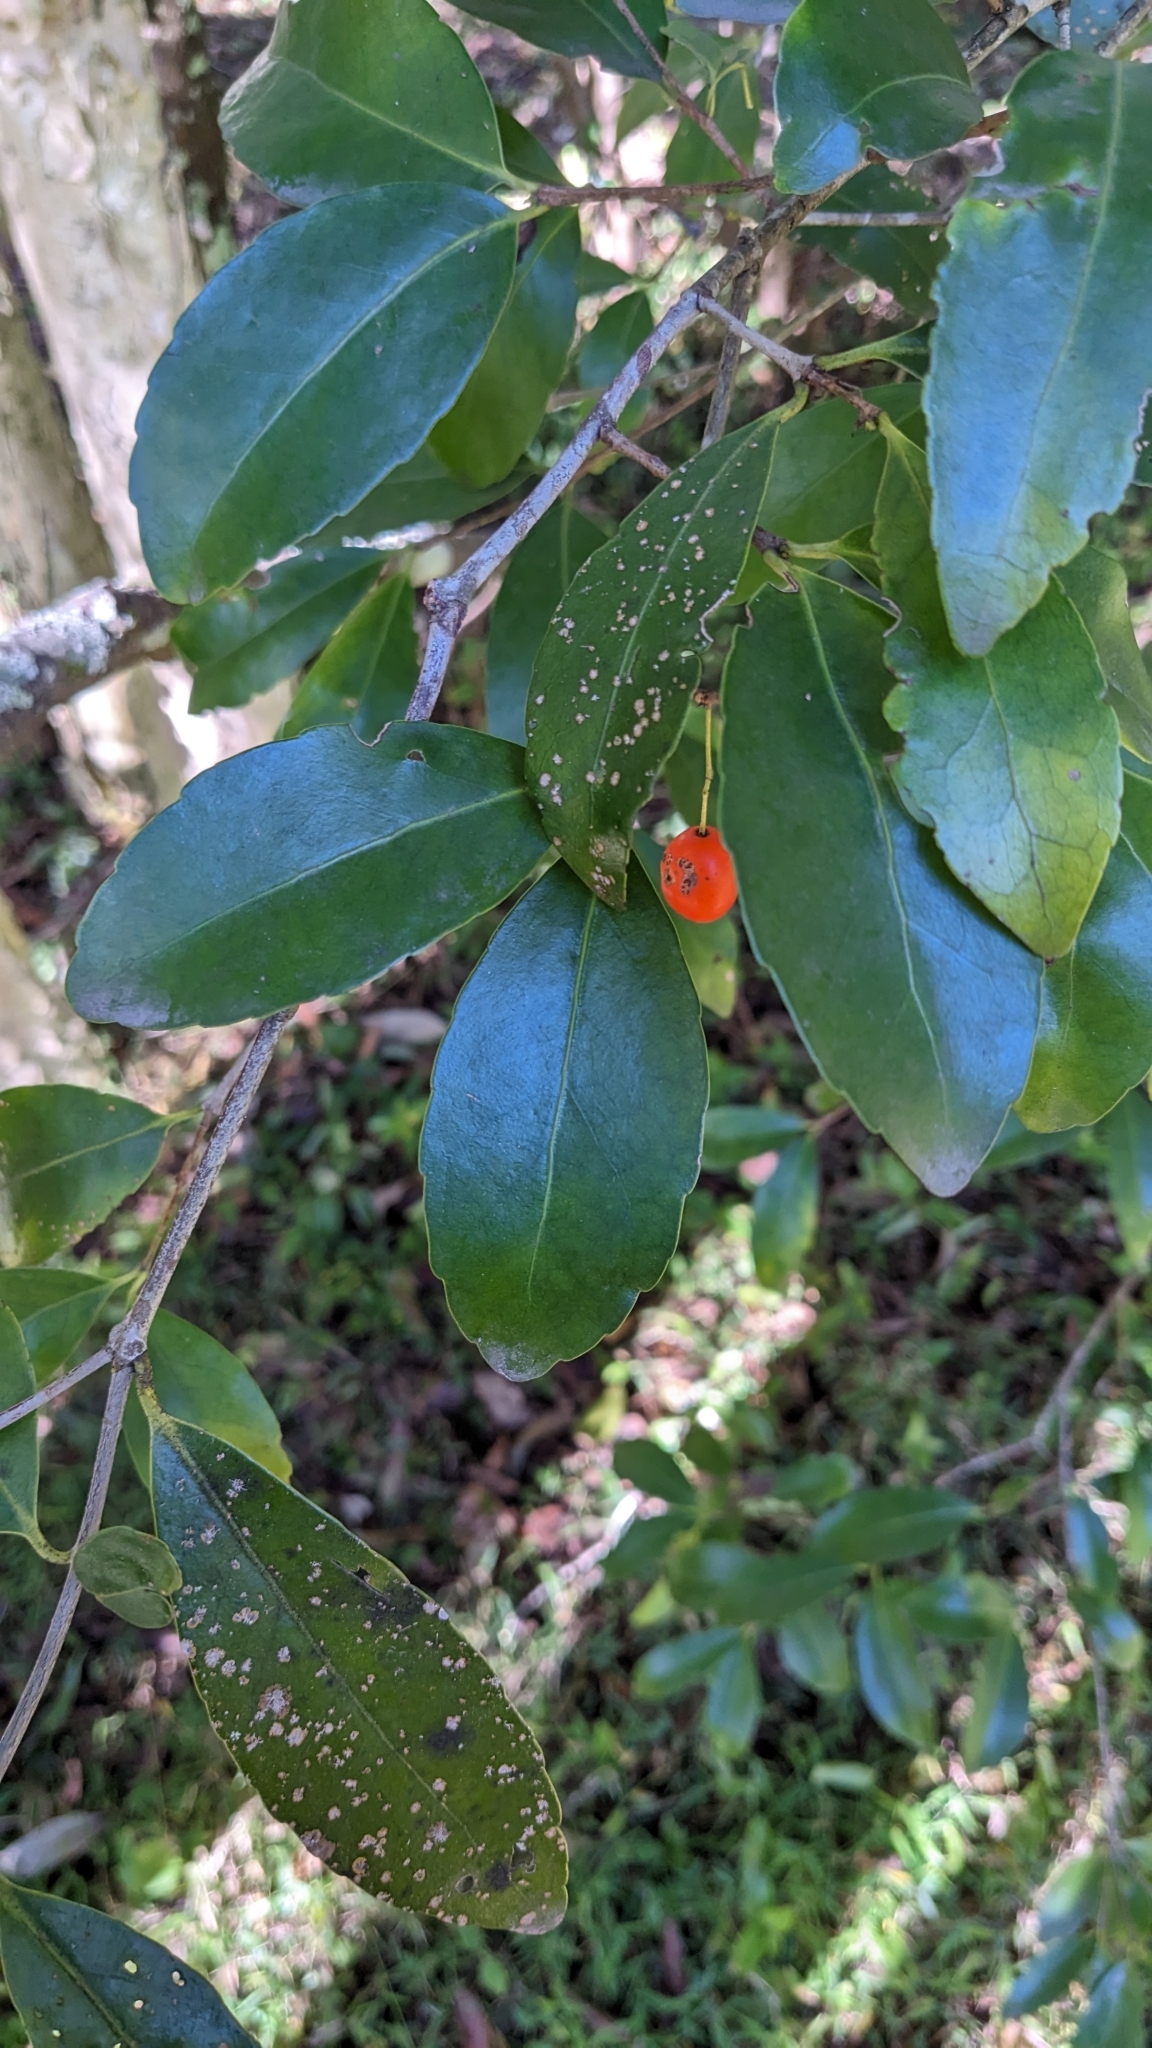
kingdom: Plantae
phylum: Tracheophyta
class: Magnoliopsida
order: Celastrales
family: Celastraceae
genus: Elaeodendron
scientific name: Elaeodendron australe
